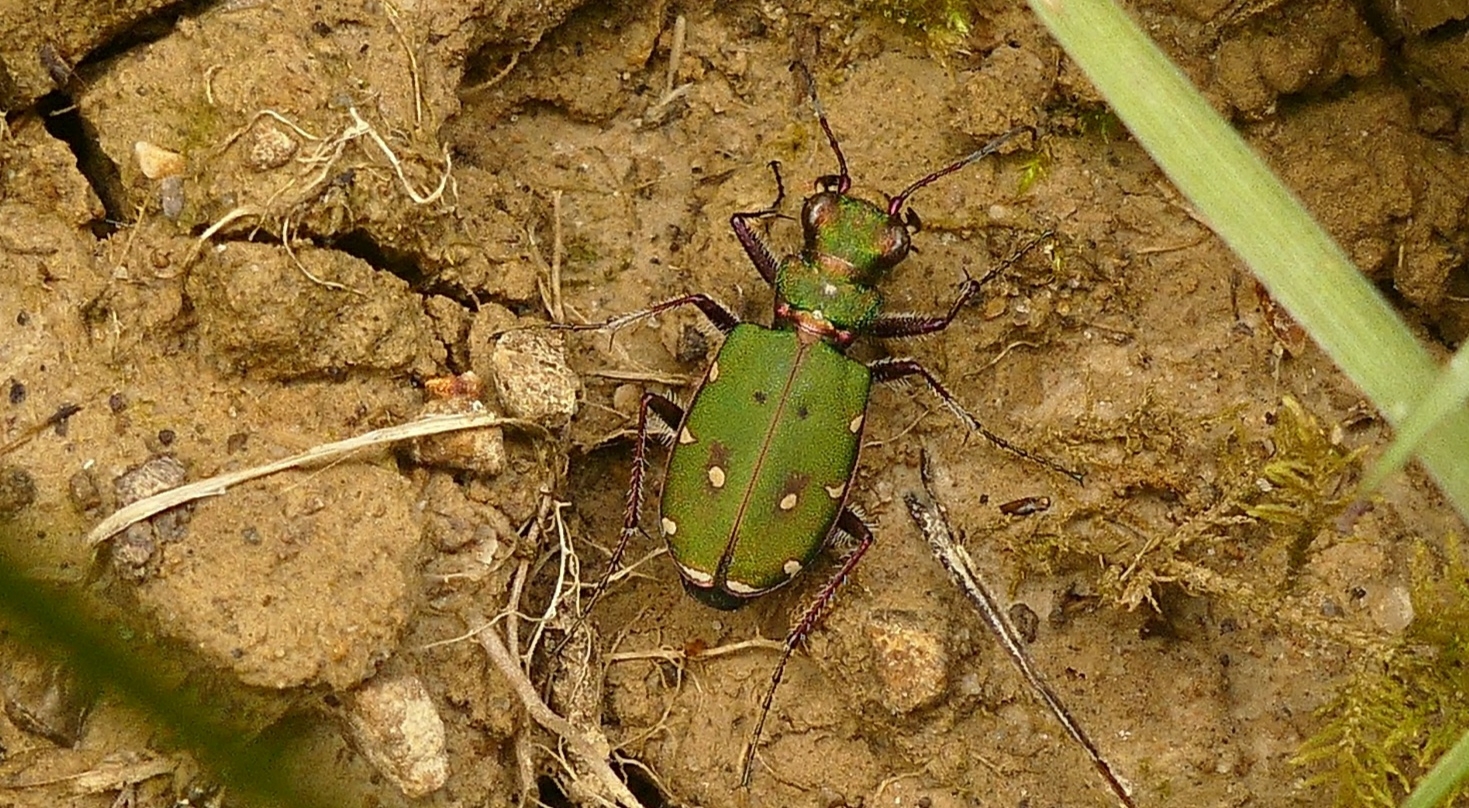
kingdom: Animalia
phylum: Arthropoda
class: Insecta
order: Coleoptera
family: Carabidae
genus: Cicindela
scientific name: Cicindela campestris
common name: Common tiger beetle
